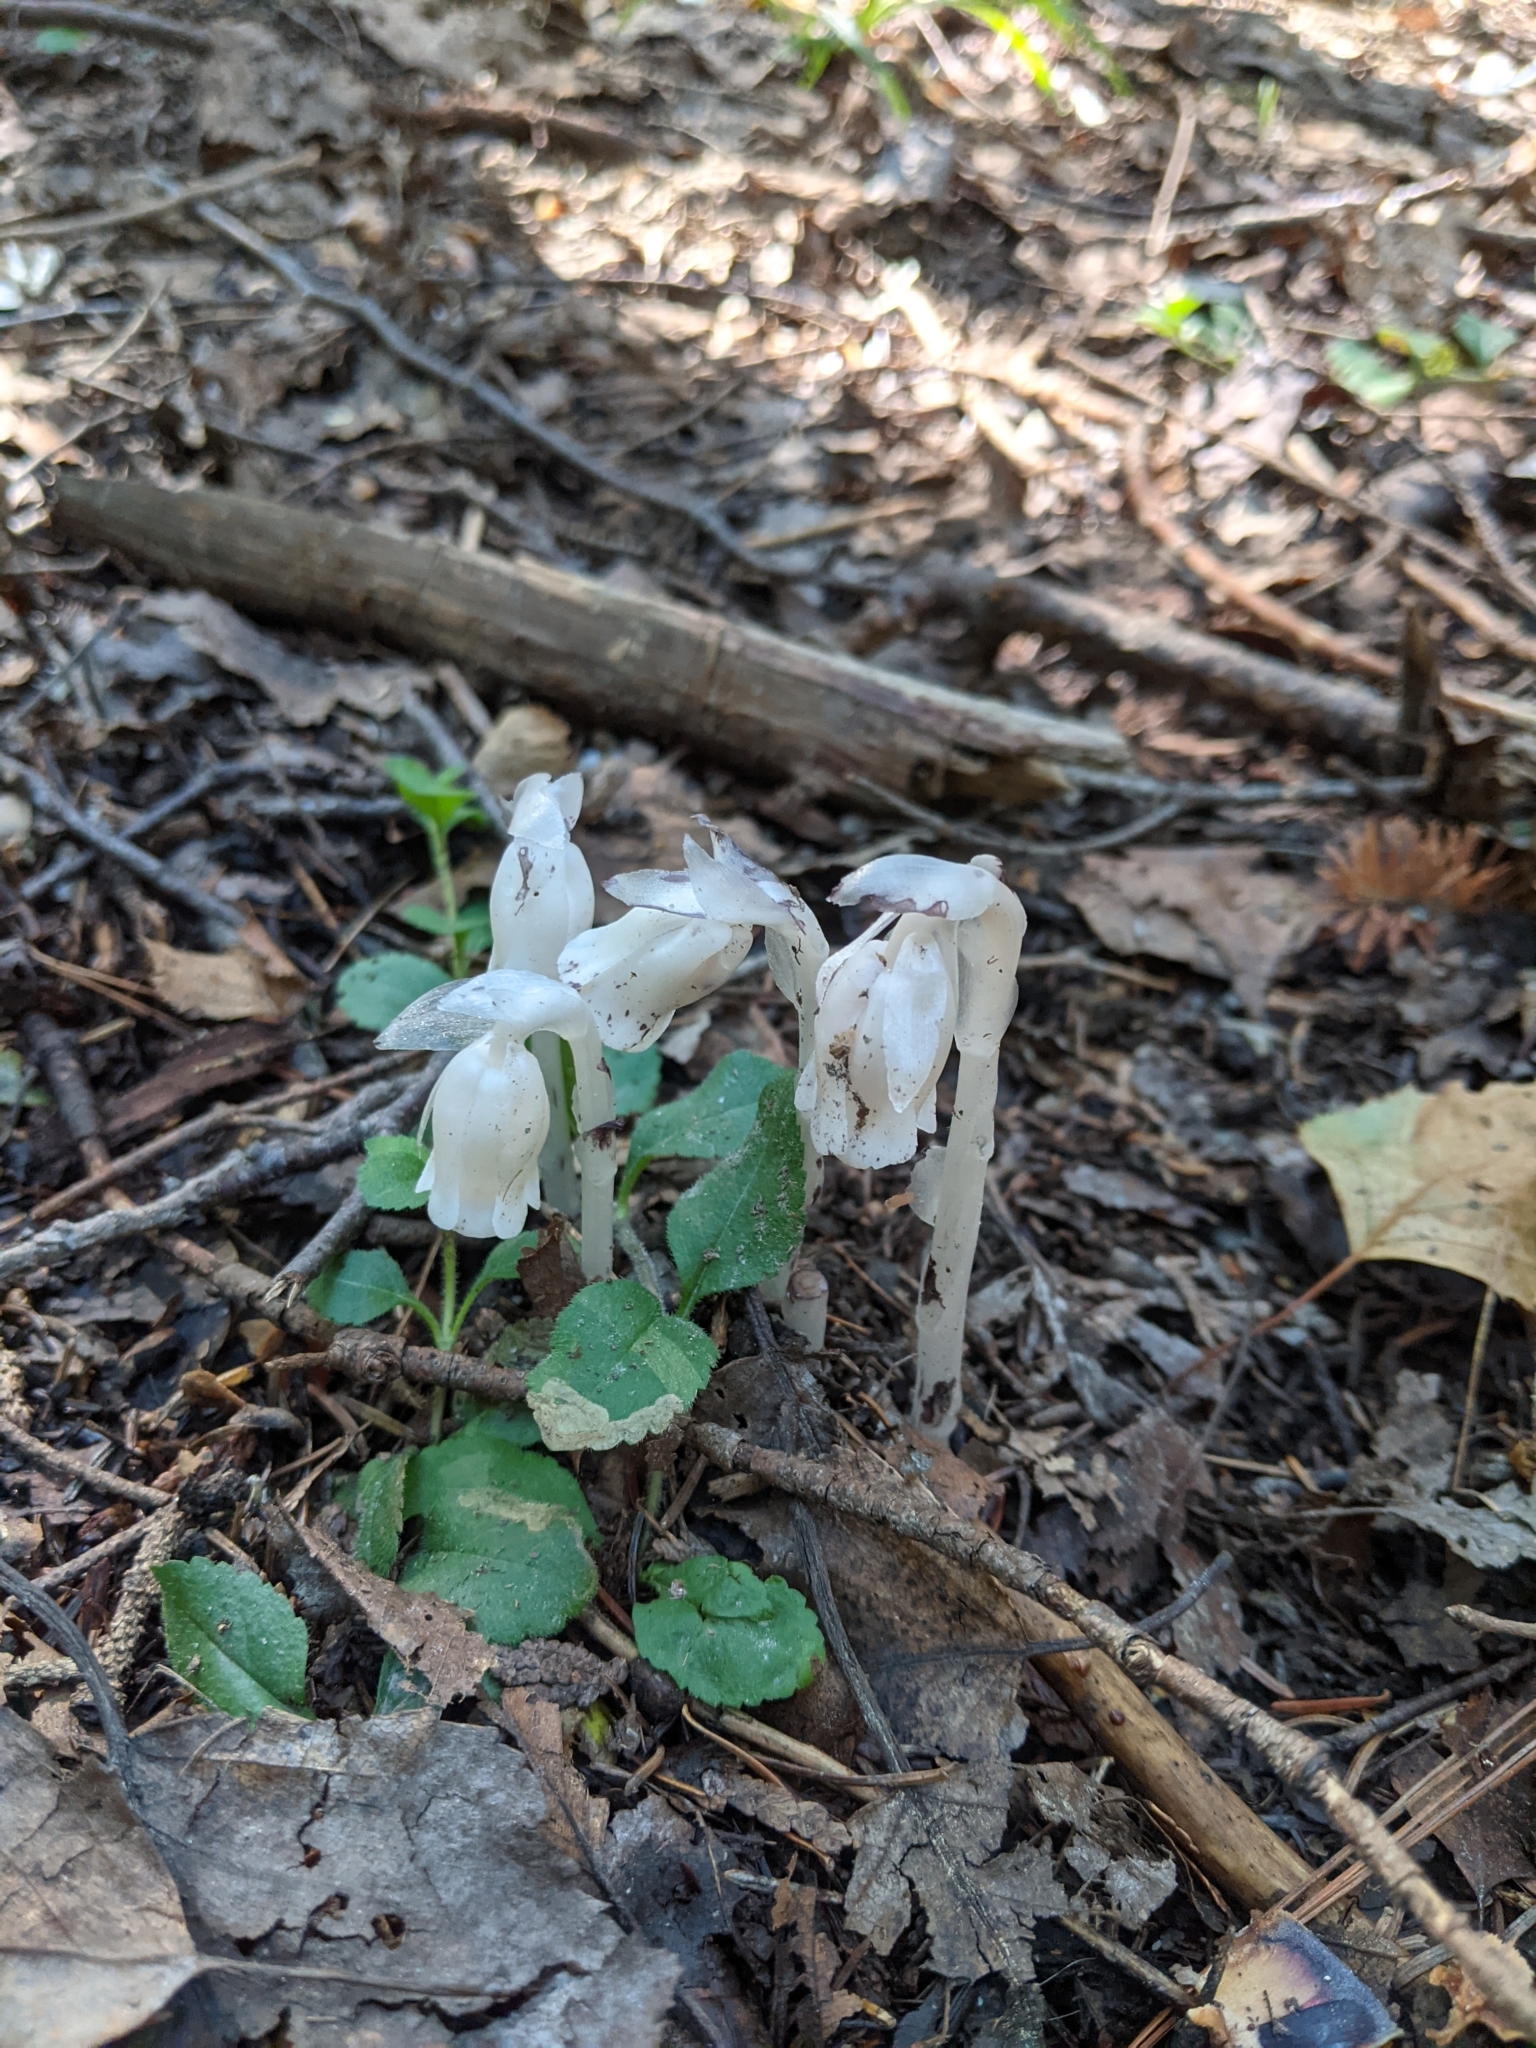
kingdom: Plantae
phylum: Tracheophyta
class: Magnoliopsida
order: Ericales
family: Ericaceae
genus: Monotropa
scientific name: Monotropa uniflora
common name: Convulsion root
